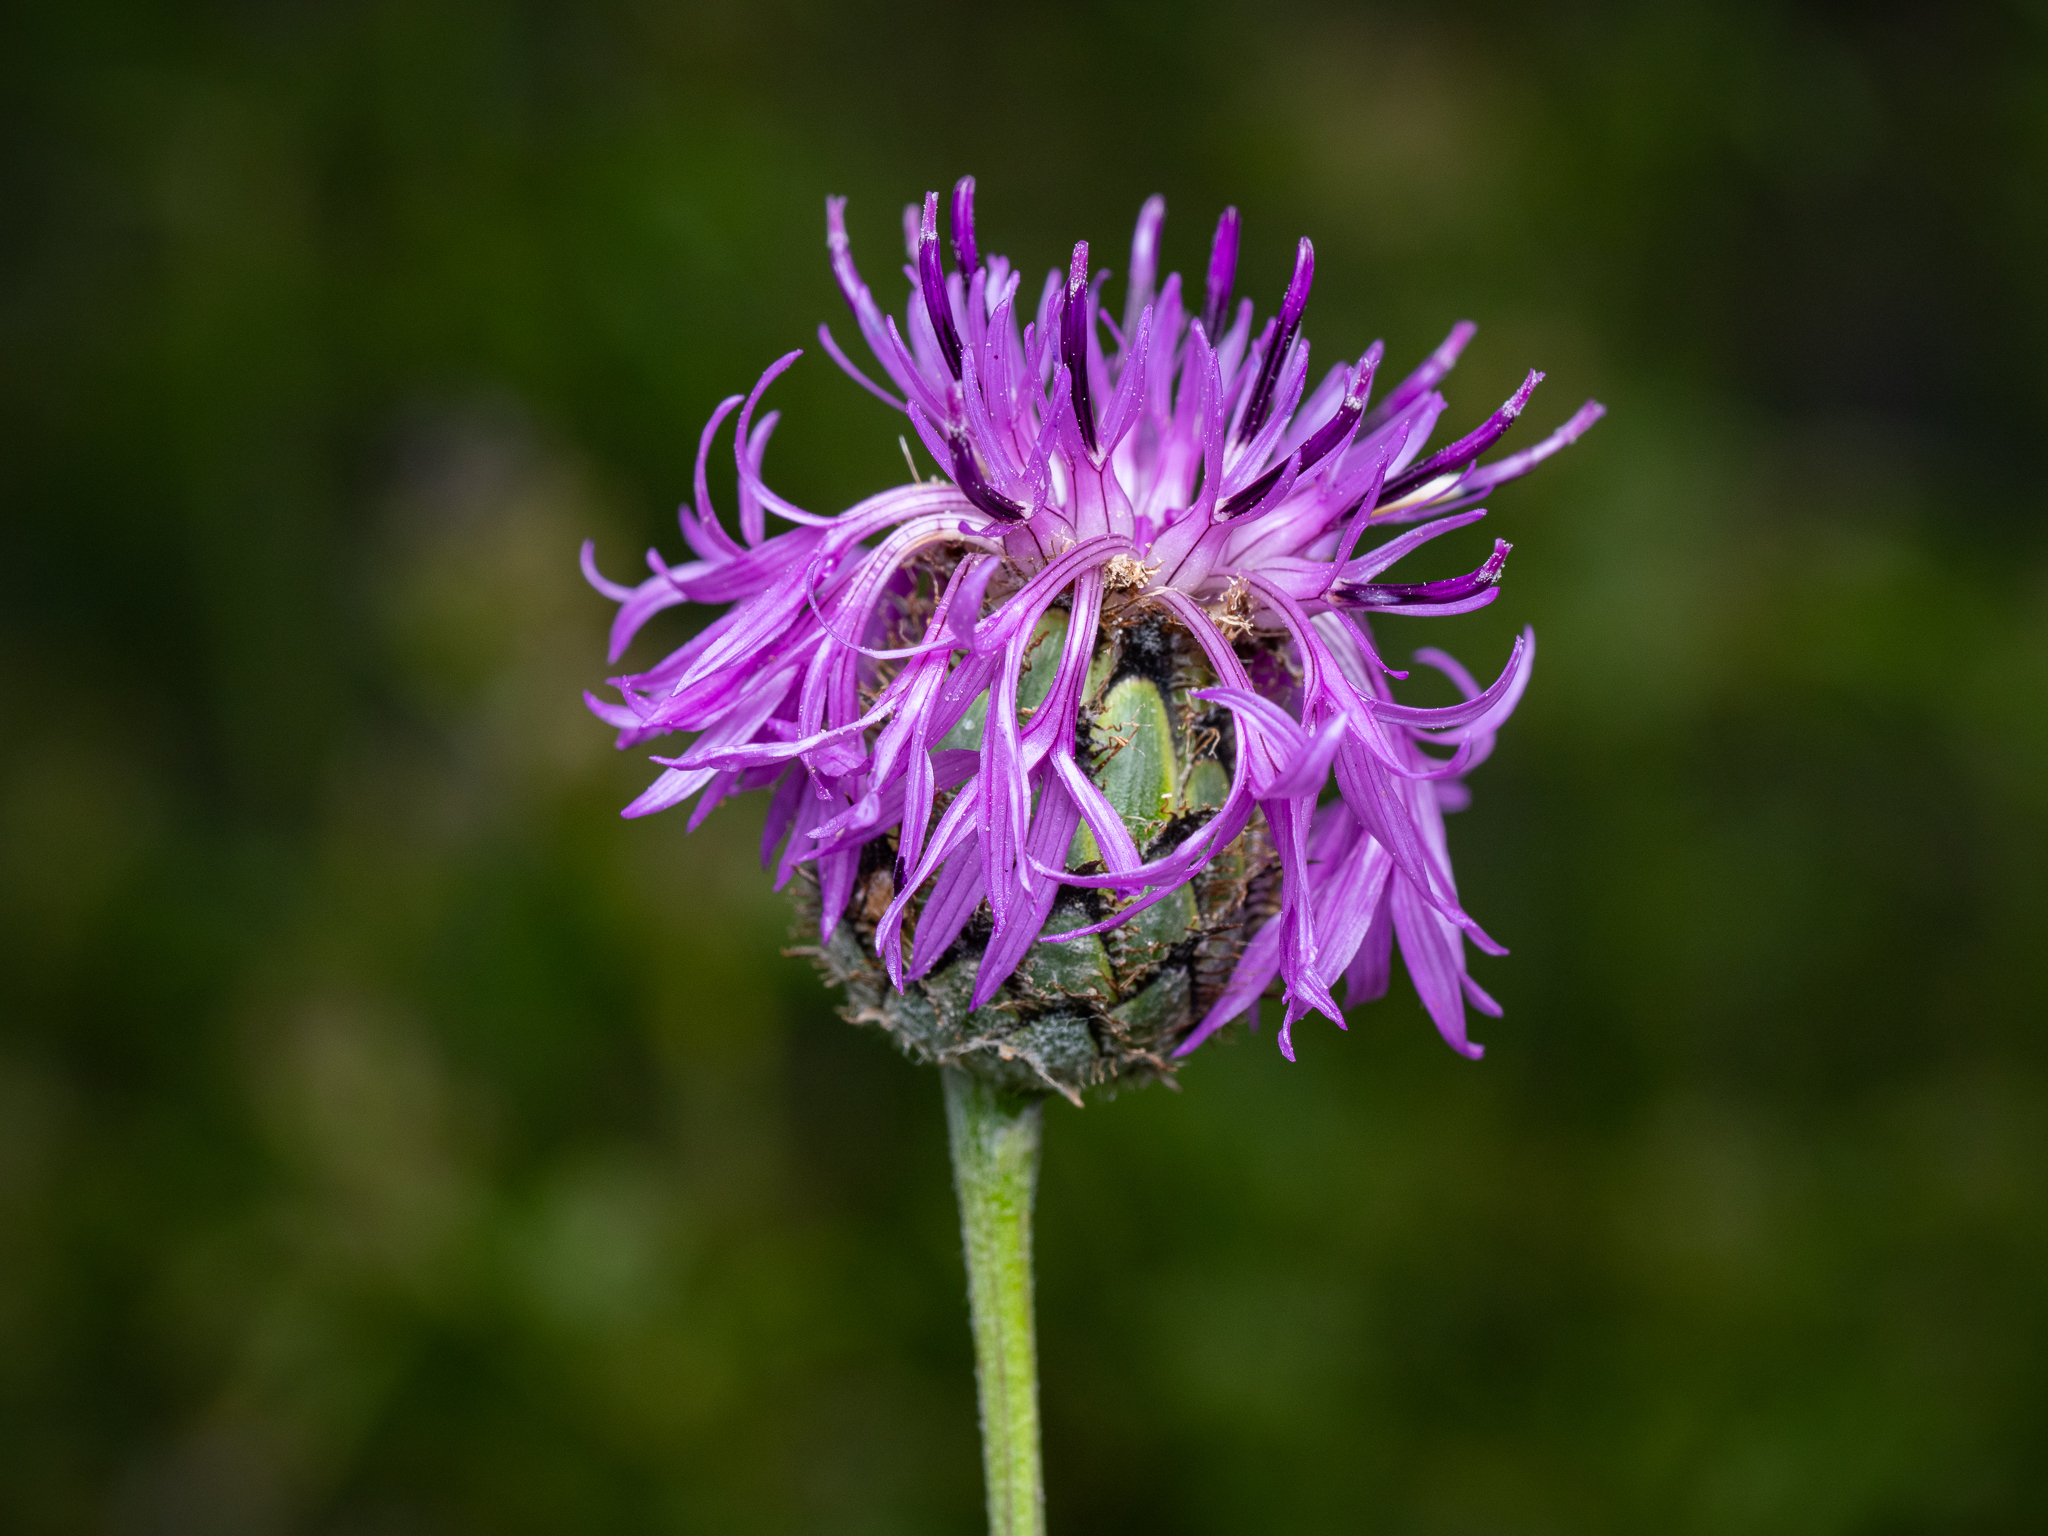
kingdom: Plantae
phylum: Tracheophyta
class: Magnoliopsida
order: Asterales
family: Asteraceae
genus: Centaurea
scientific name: Centaurea scabiosa
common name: Greater knapweed
